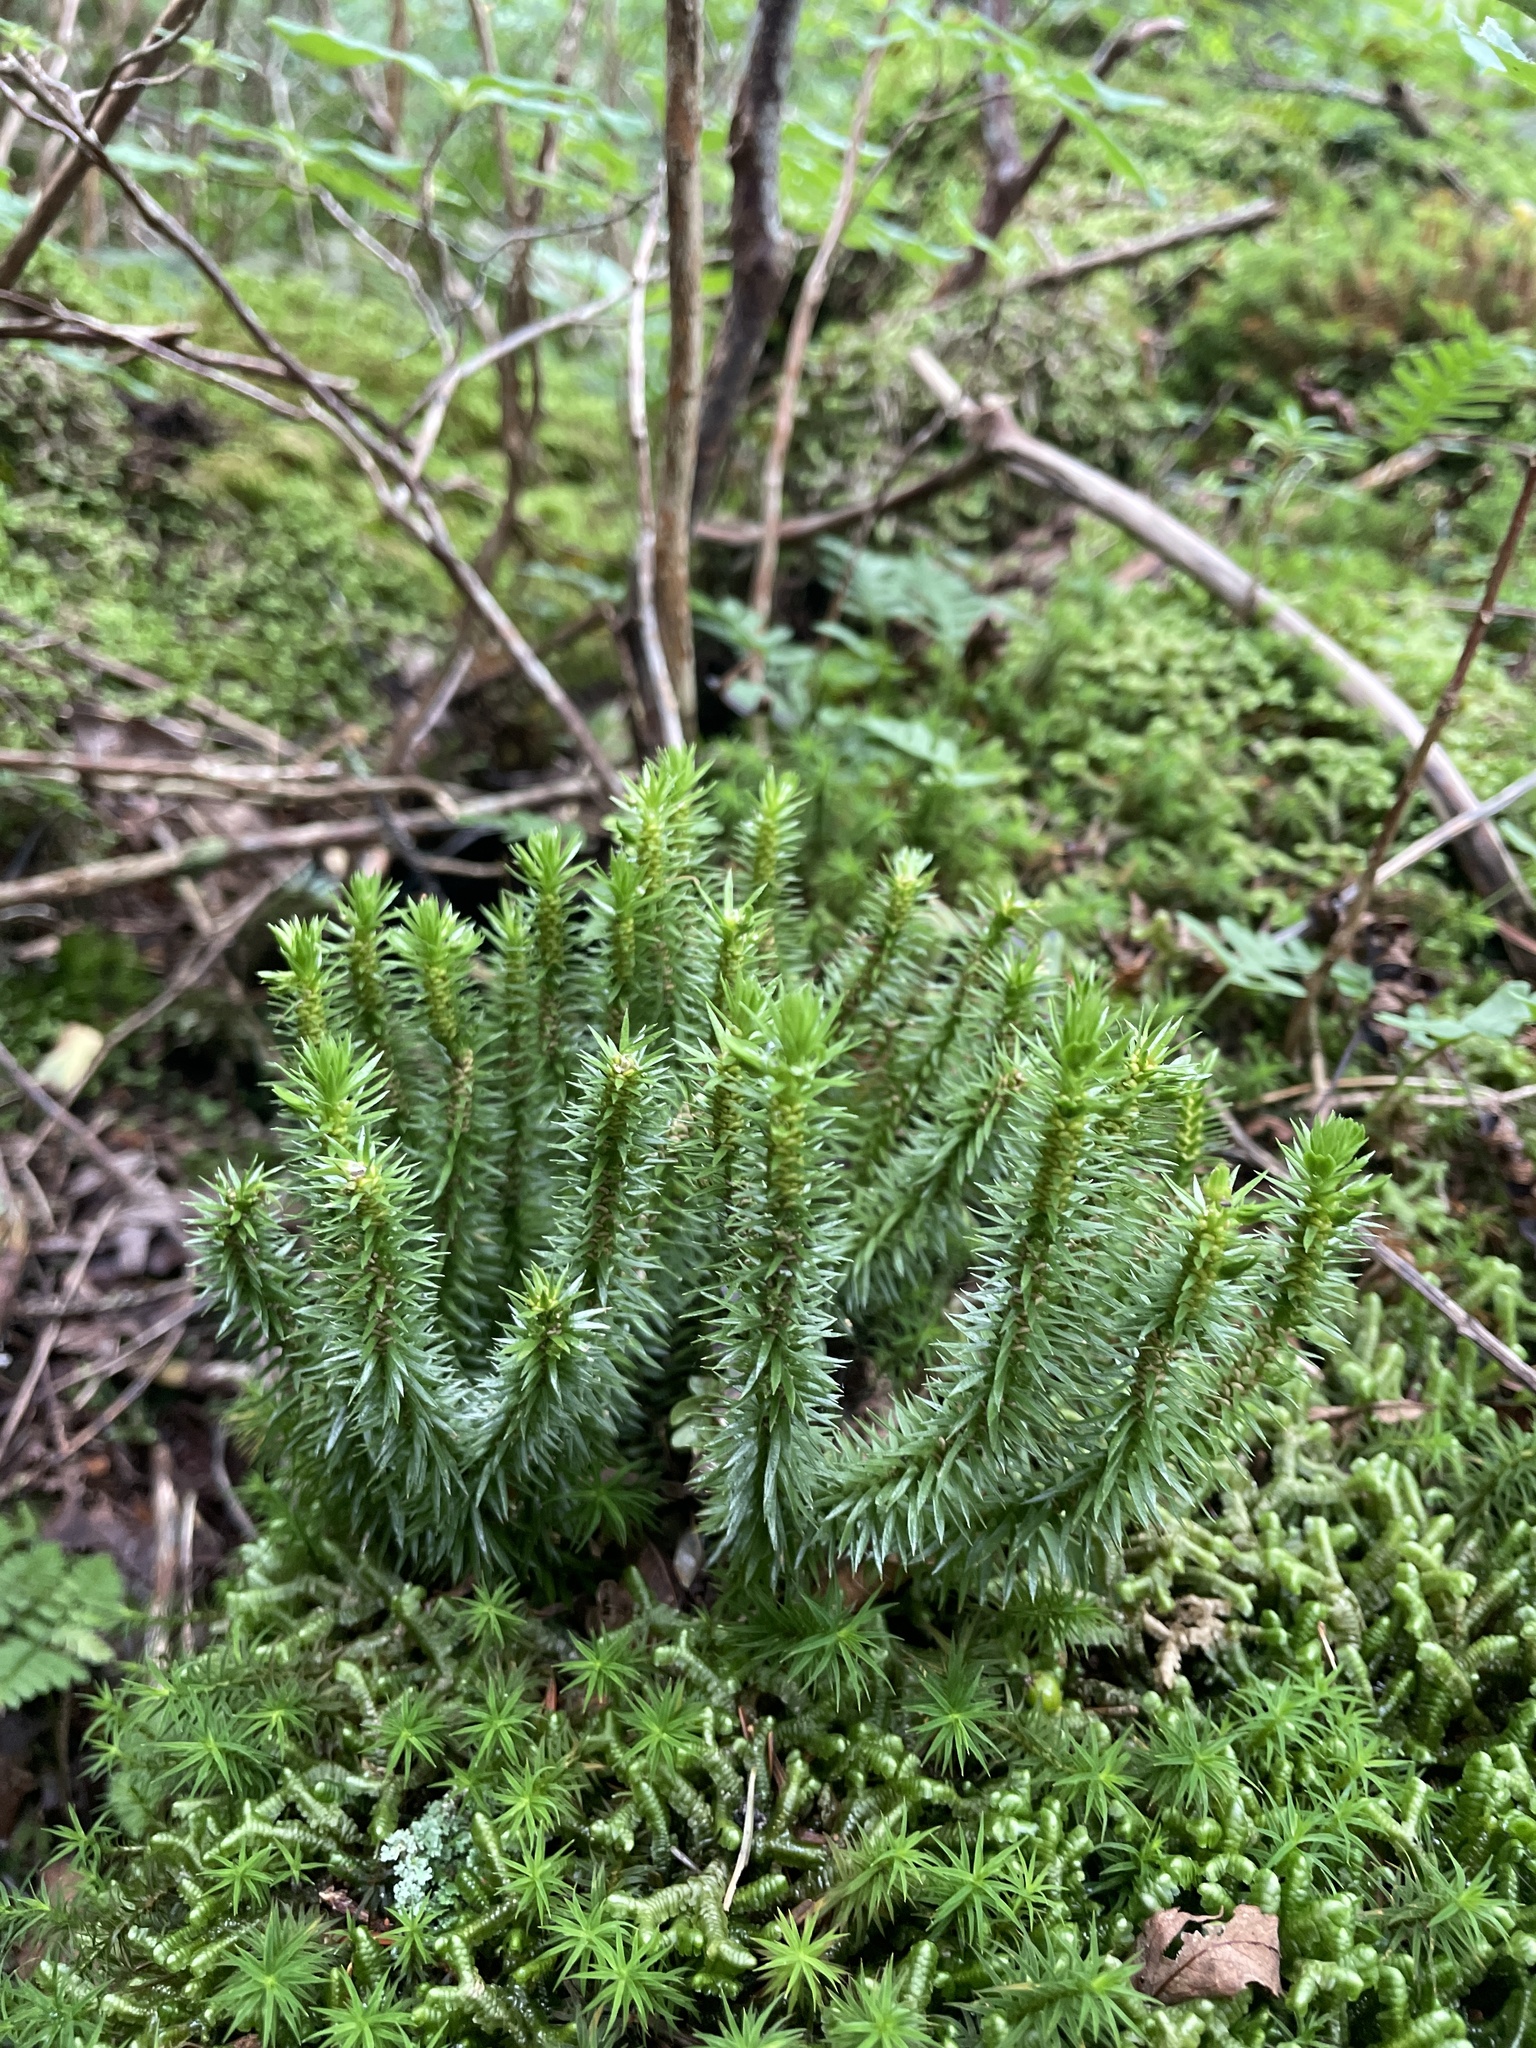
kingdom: Plantae
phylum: Tracheophyta
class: Lycopodiopsida
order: Lycopodiales
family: Lycopodiaceae
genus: Huperzia
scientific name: Huperzia lucidula
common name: Shining clubmoss
